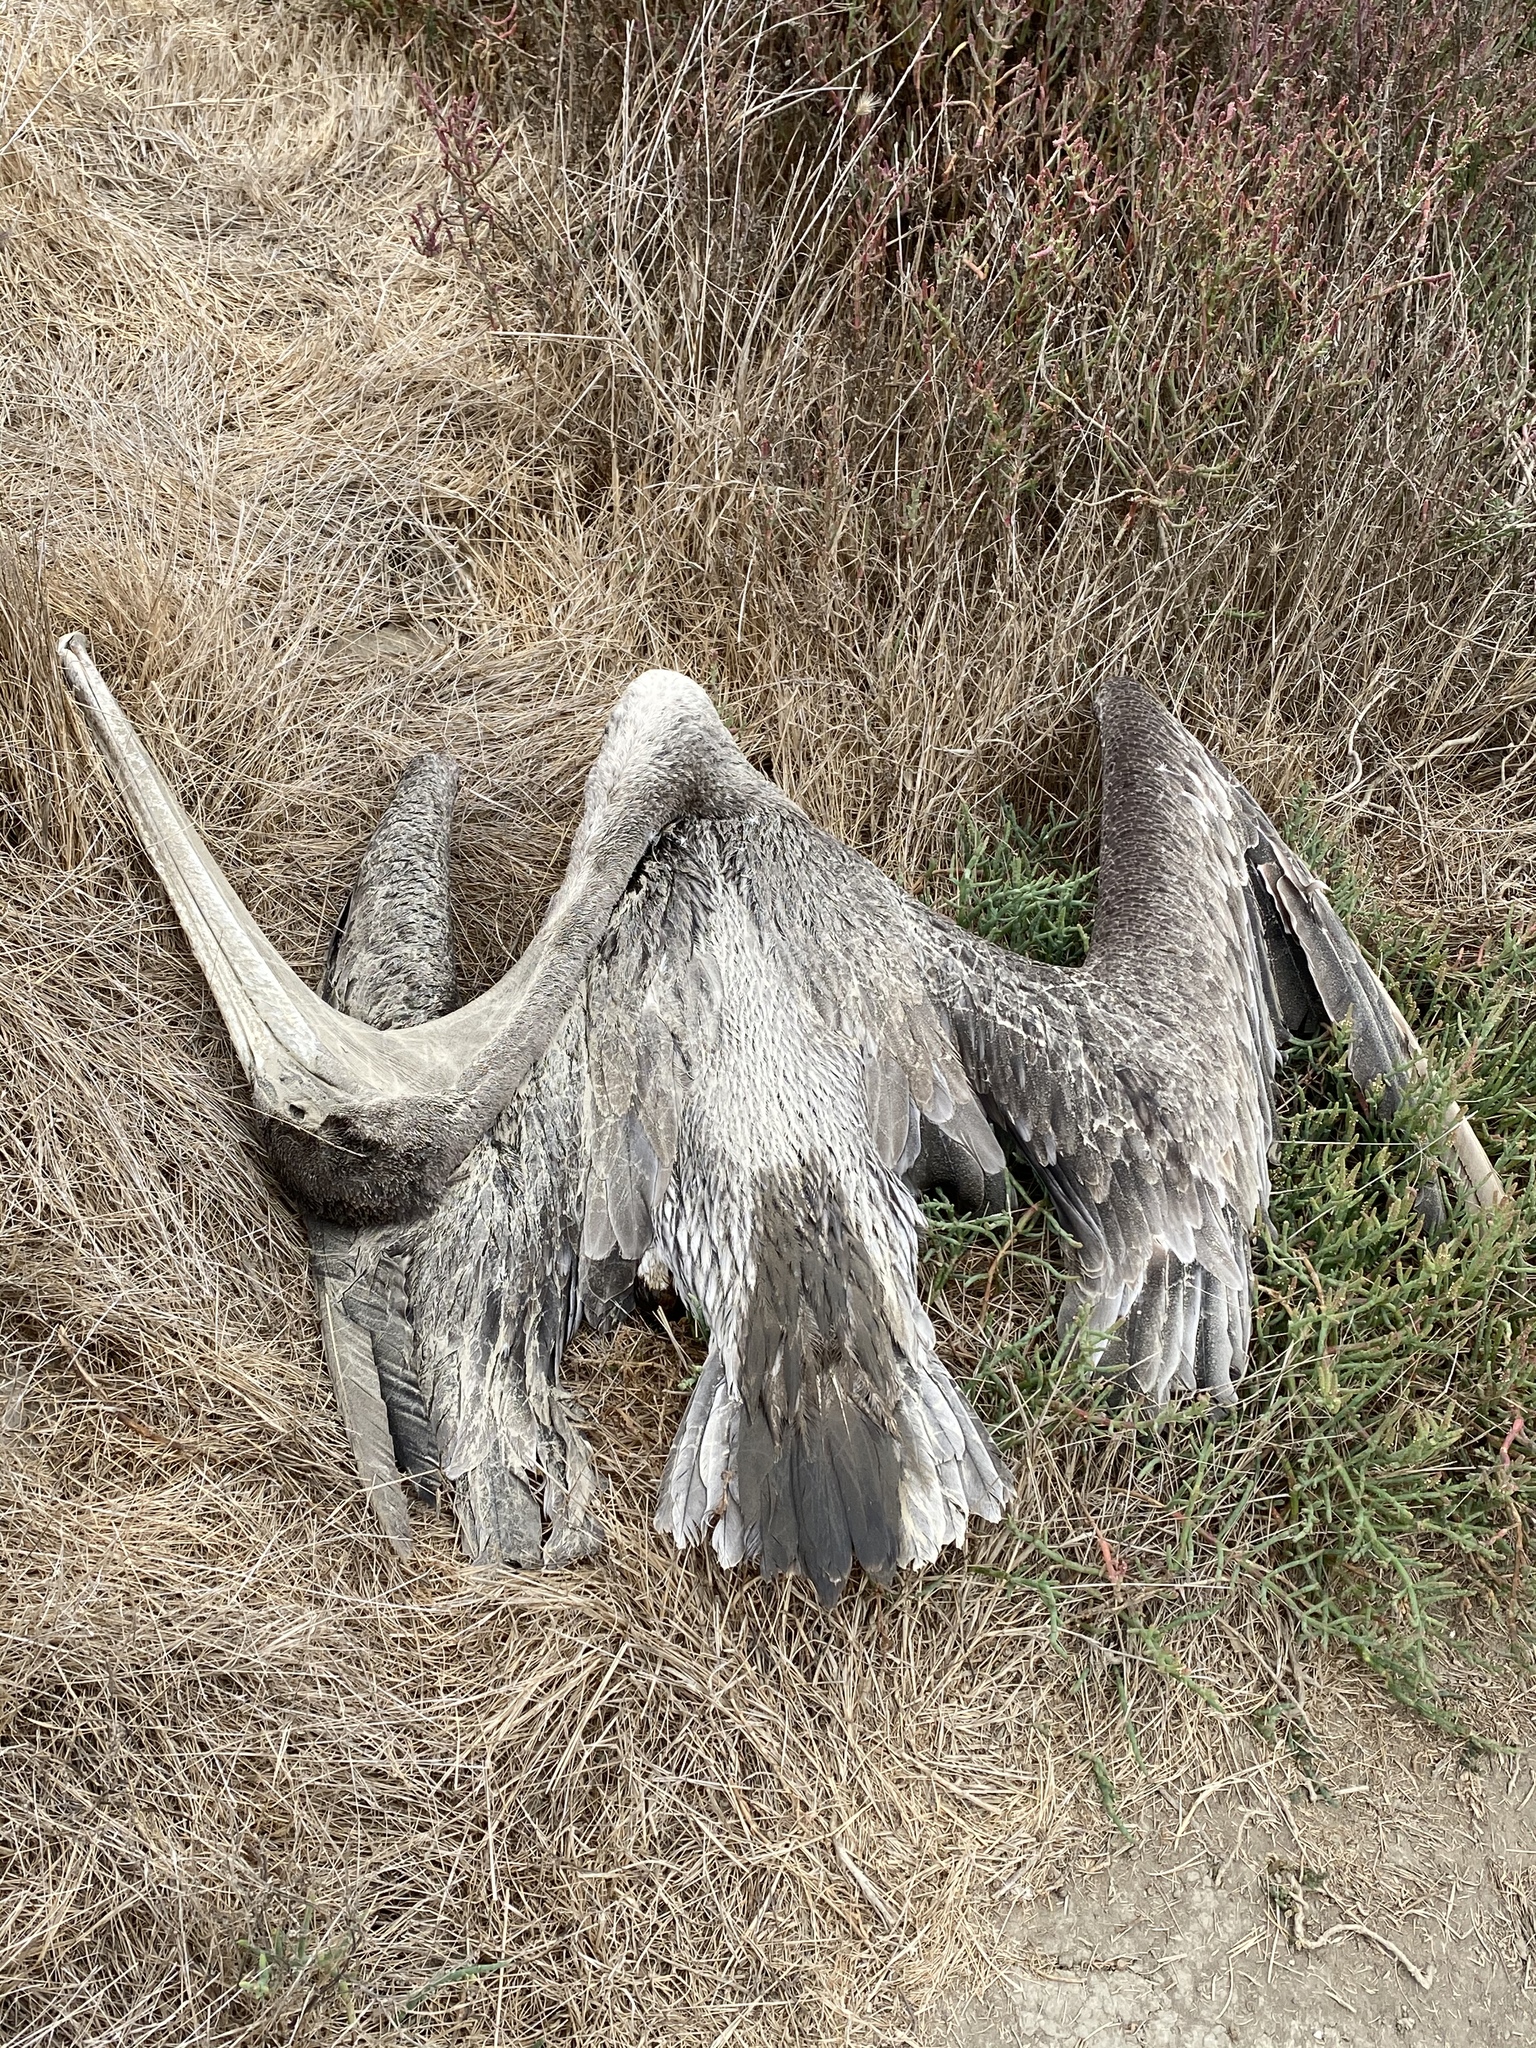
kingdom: Animalia
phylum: Chordata
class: Aves
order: Pelecaniformes
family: Pelecanidae
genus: Pelecanus
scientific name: Pelecanus occidentalis
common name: Brown pelican
